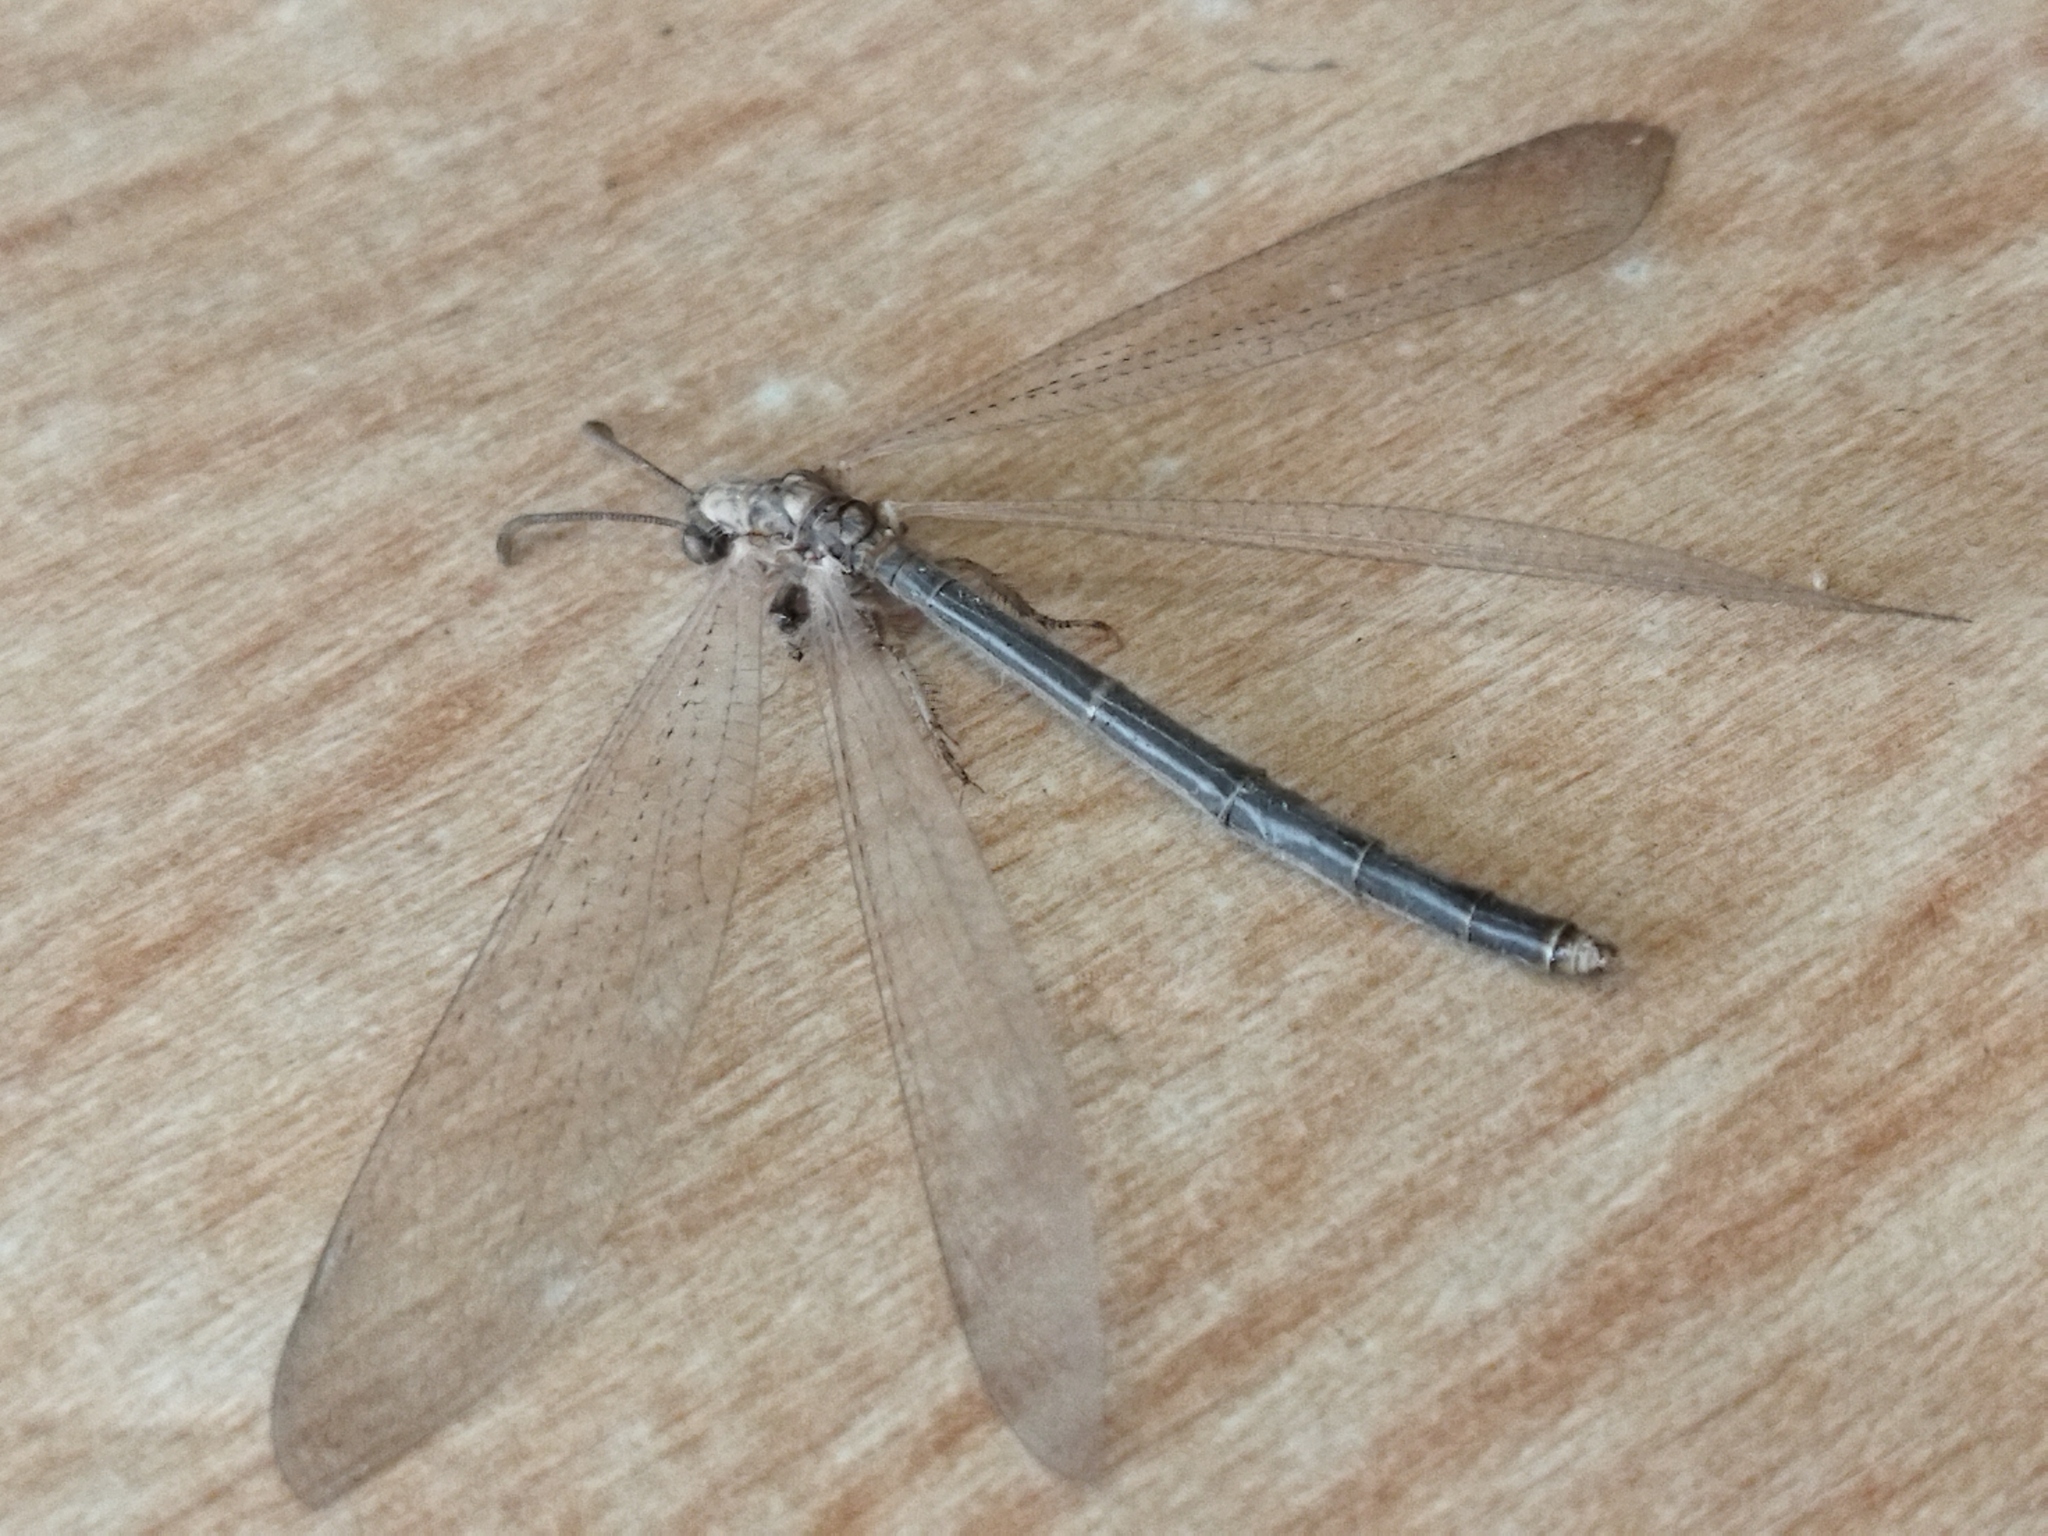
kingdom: Animalia
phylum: Arthropoda
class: Insecta
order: Neuroptera
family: Myrmeleontidae
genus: Creoleon
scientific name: Creoleon plumbeus
